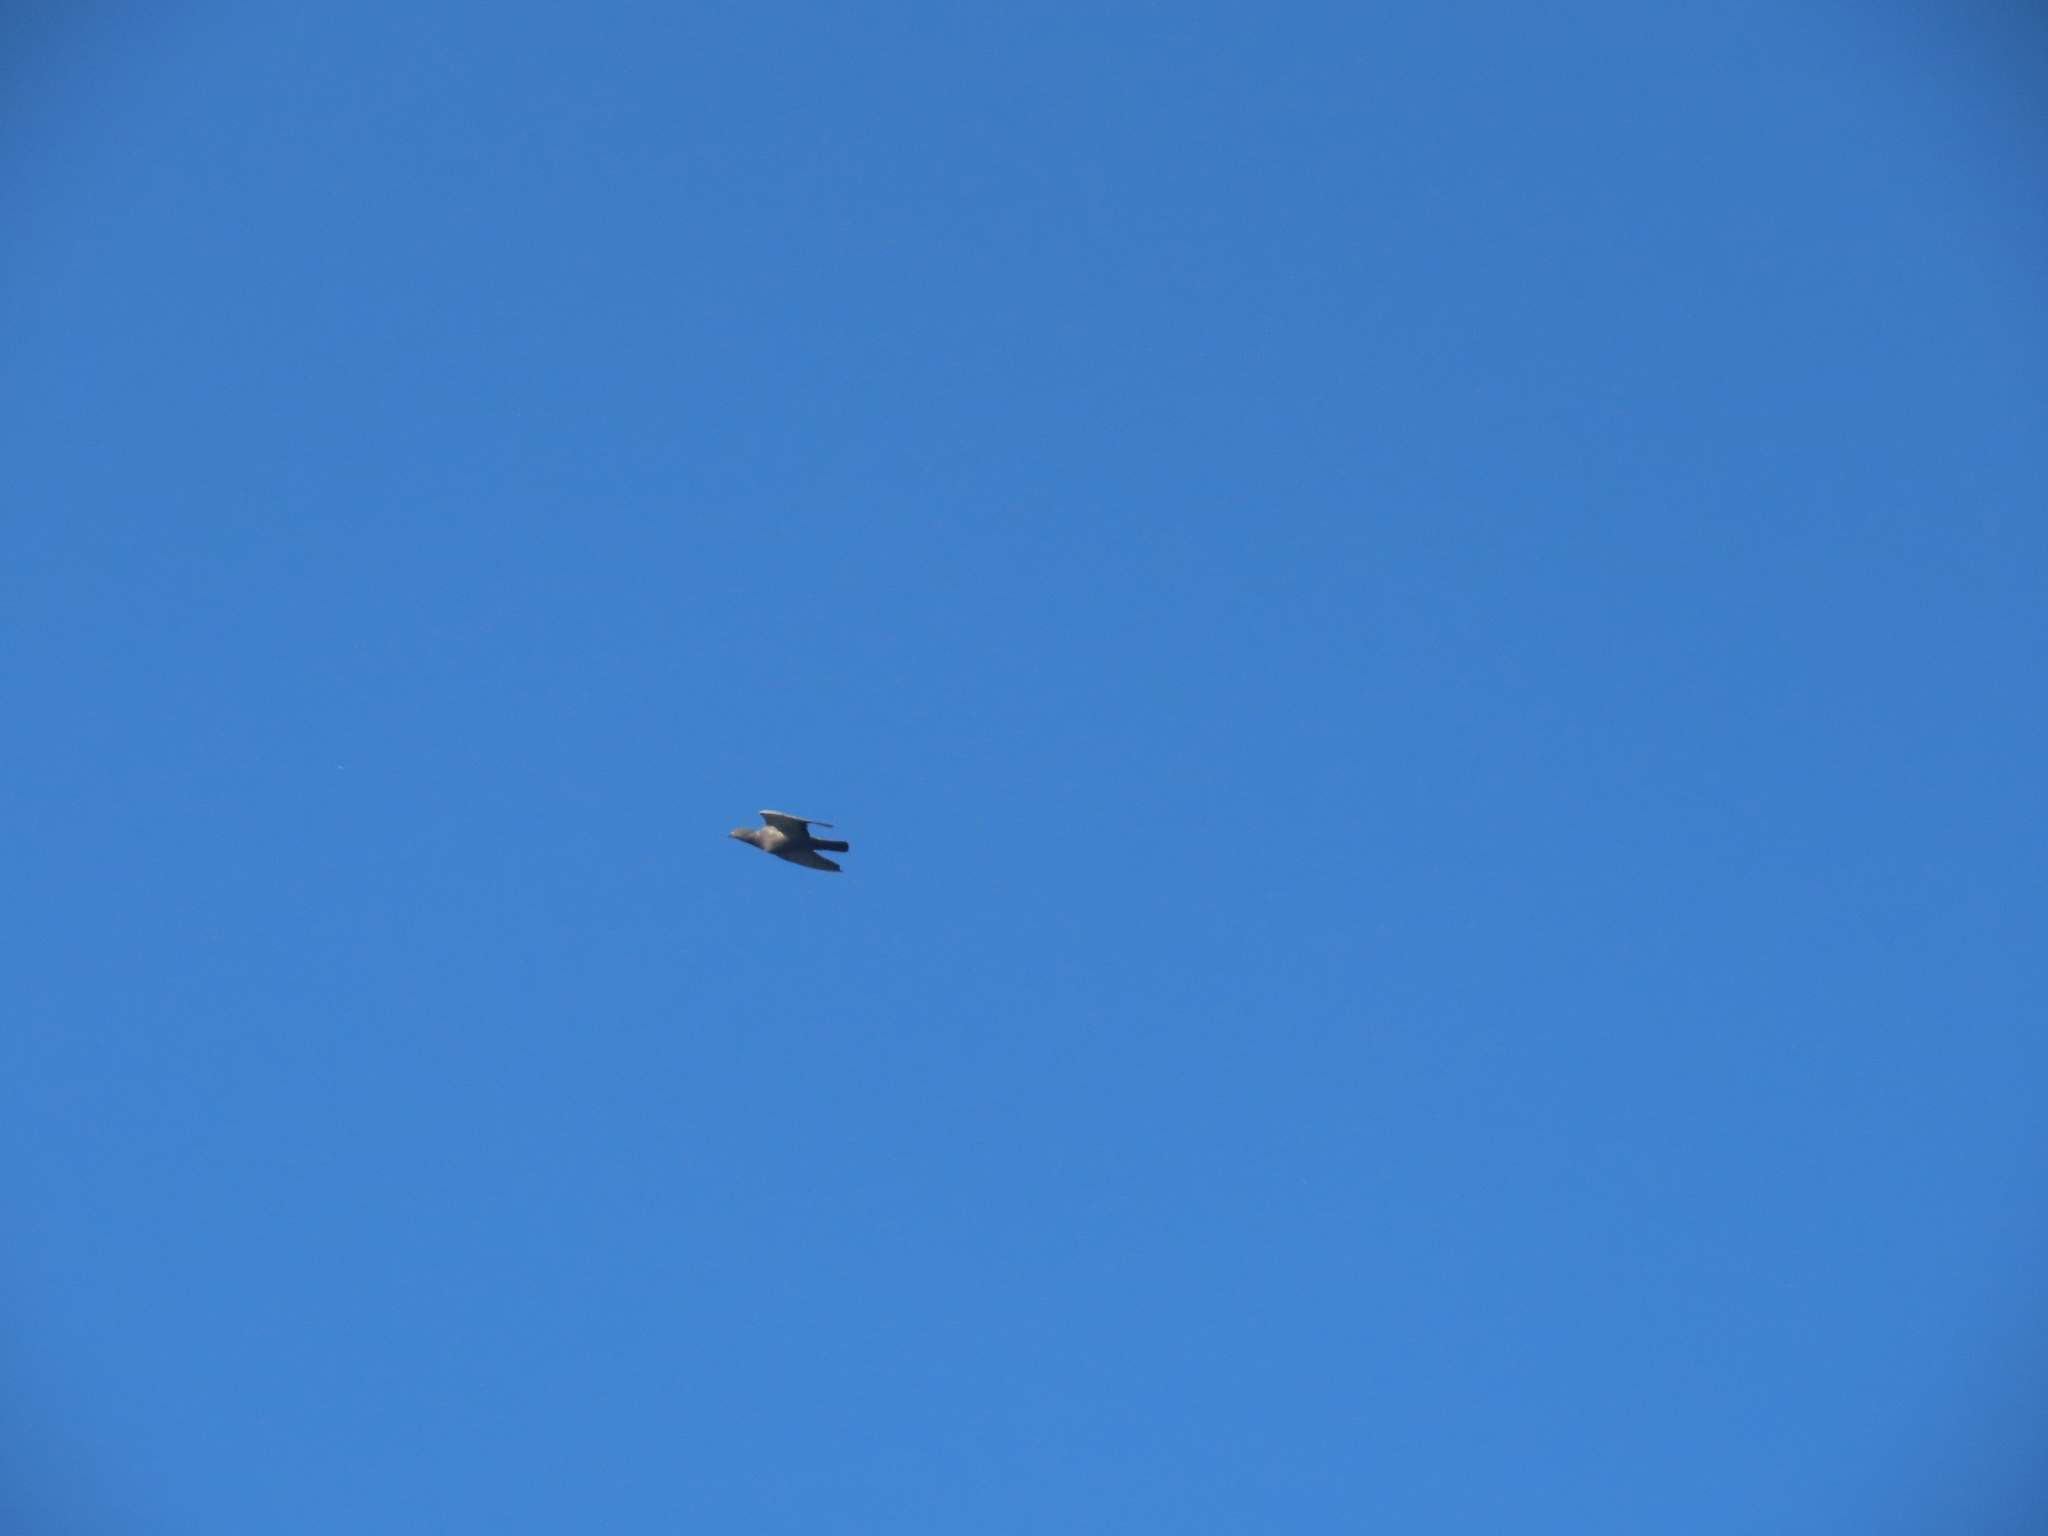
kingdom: Animalia
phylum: Chordata
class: Aves
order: Columbiformes
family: Columbidae
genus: Columba
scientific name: Columba livia
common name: Rock pigeon
